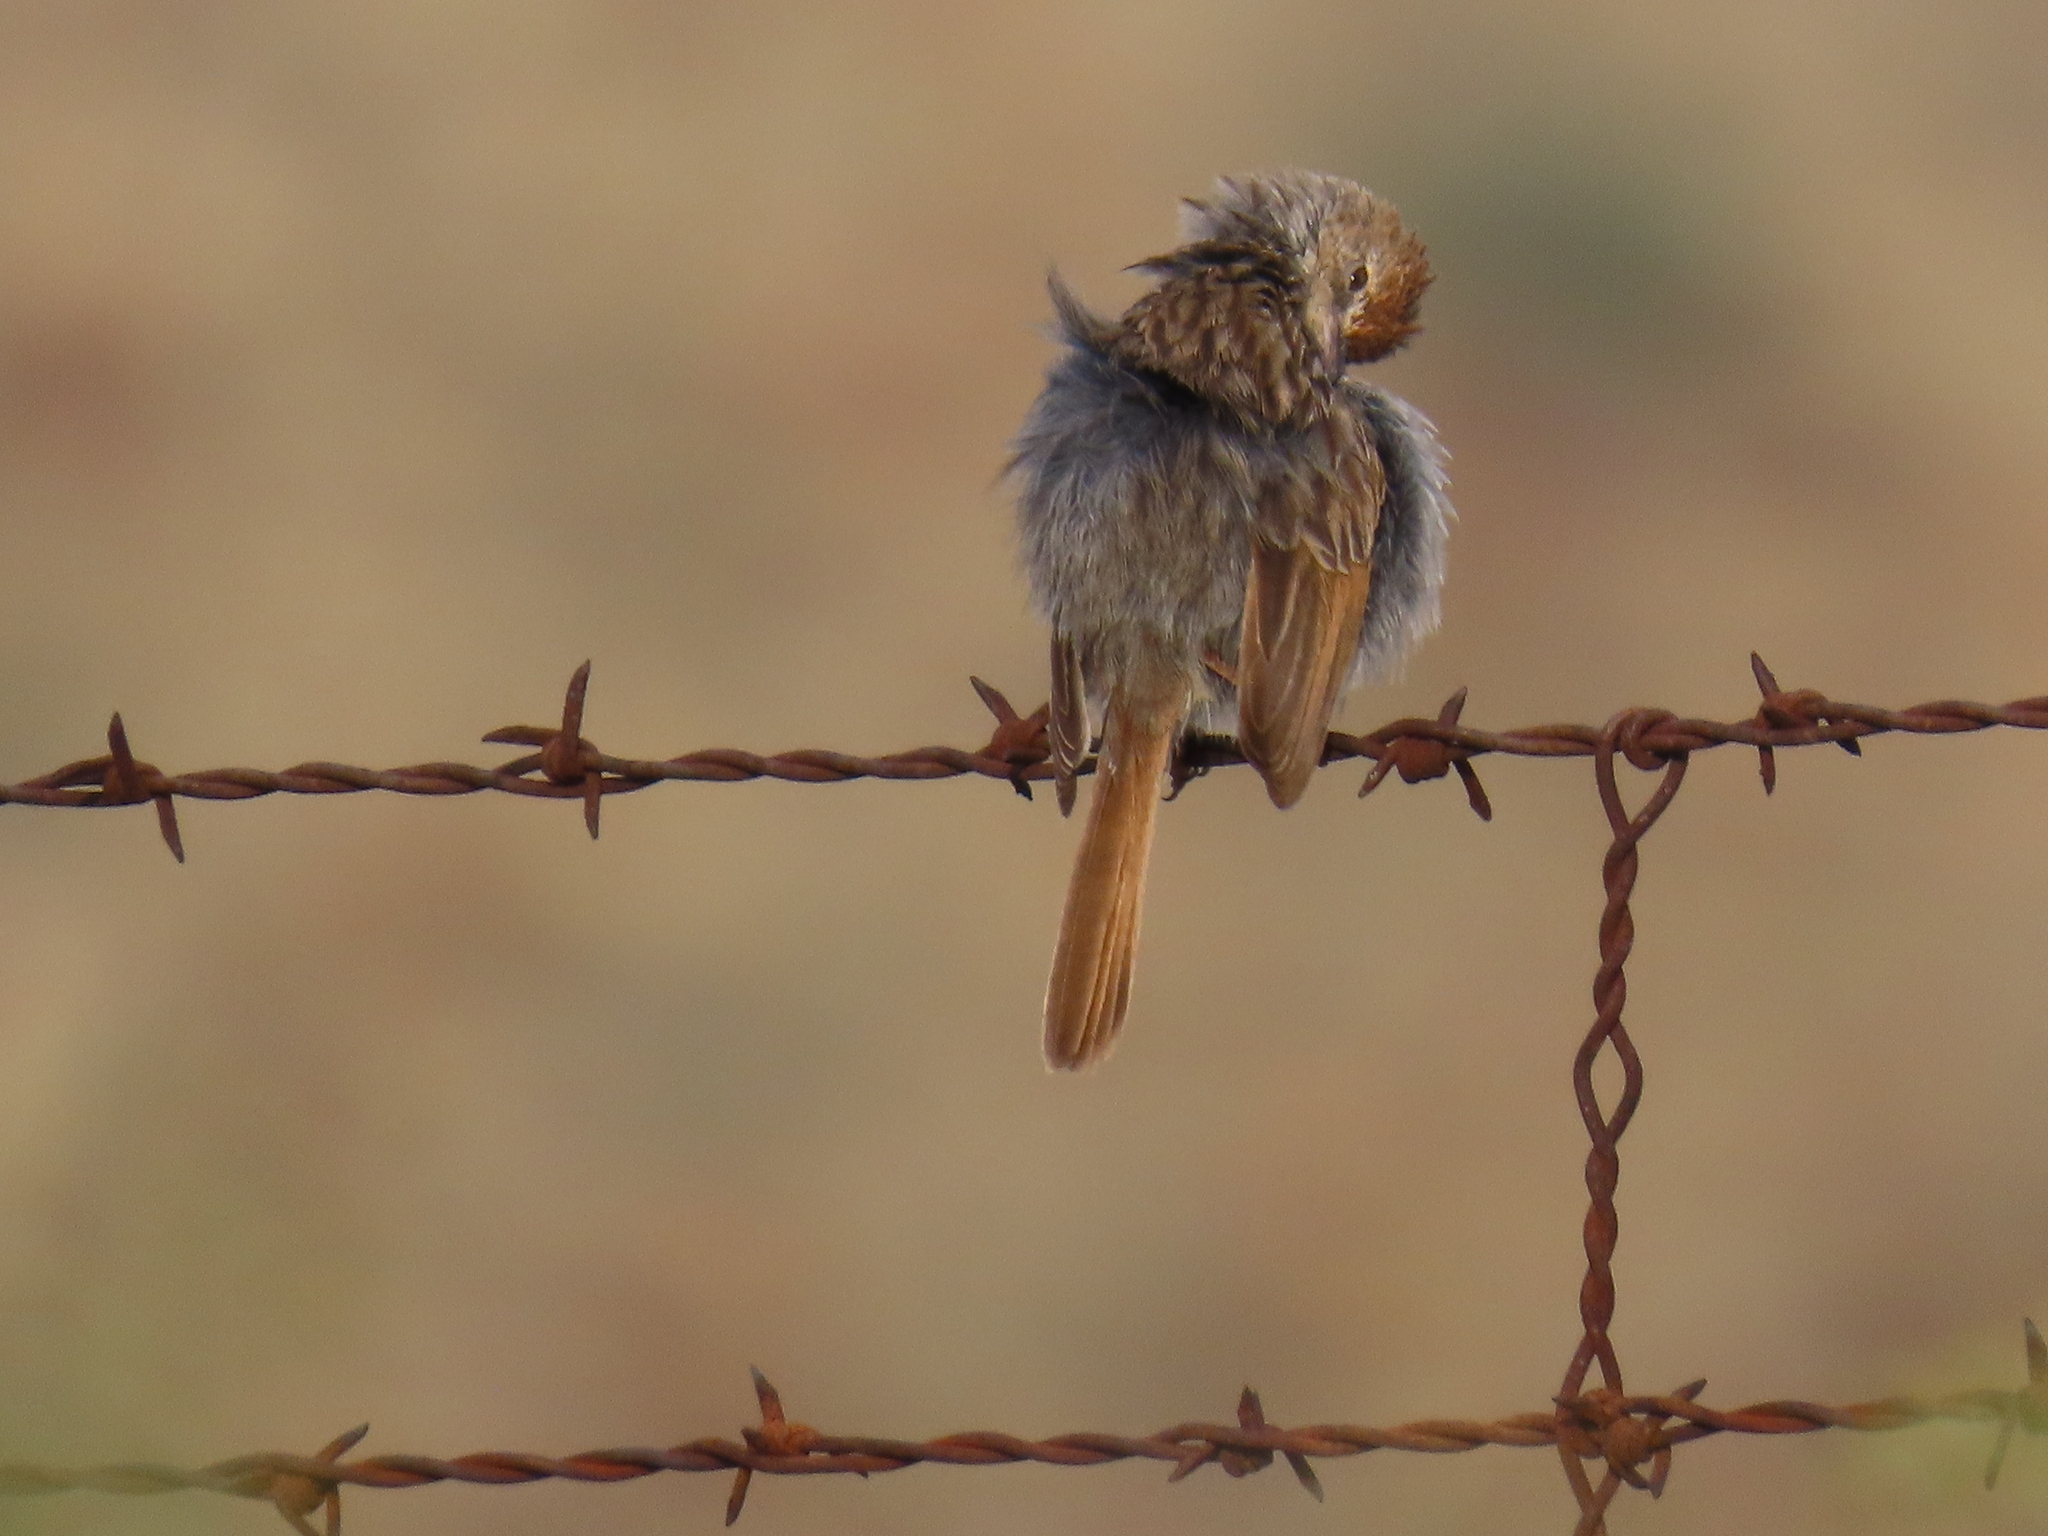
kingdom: Animalia
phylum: Chordata
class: Aves
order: Passeriformes
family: Cisticolidae
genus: Cisticola
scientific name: Cisticola subruficapilla
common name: Grey-backed cisticola
